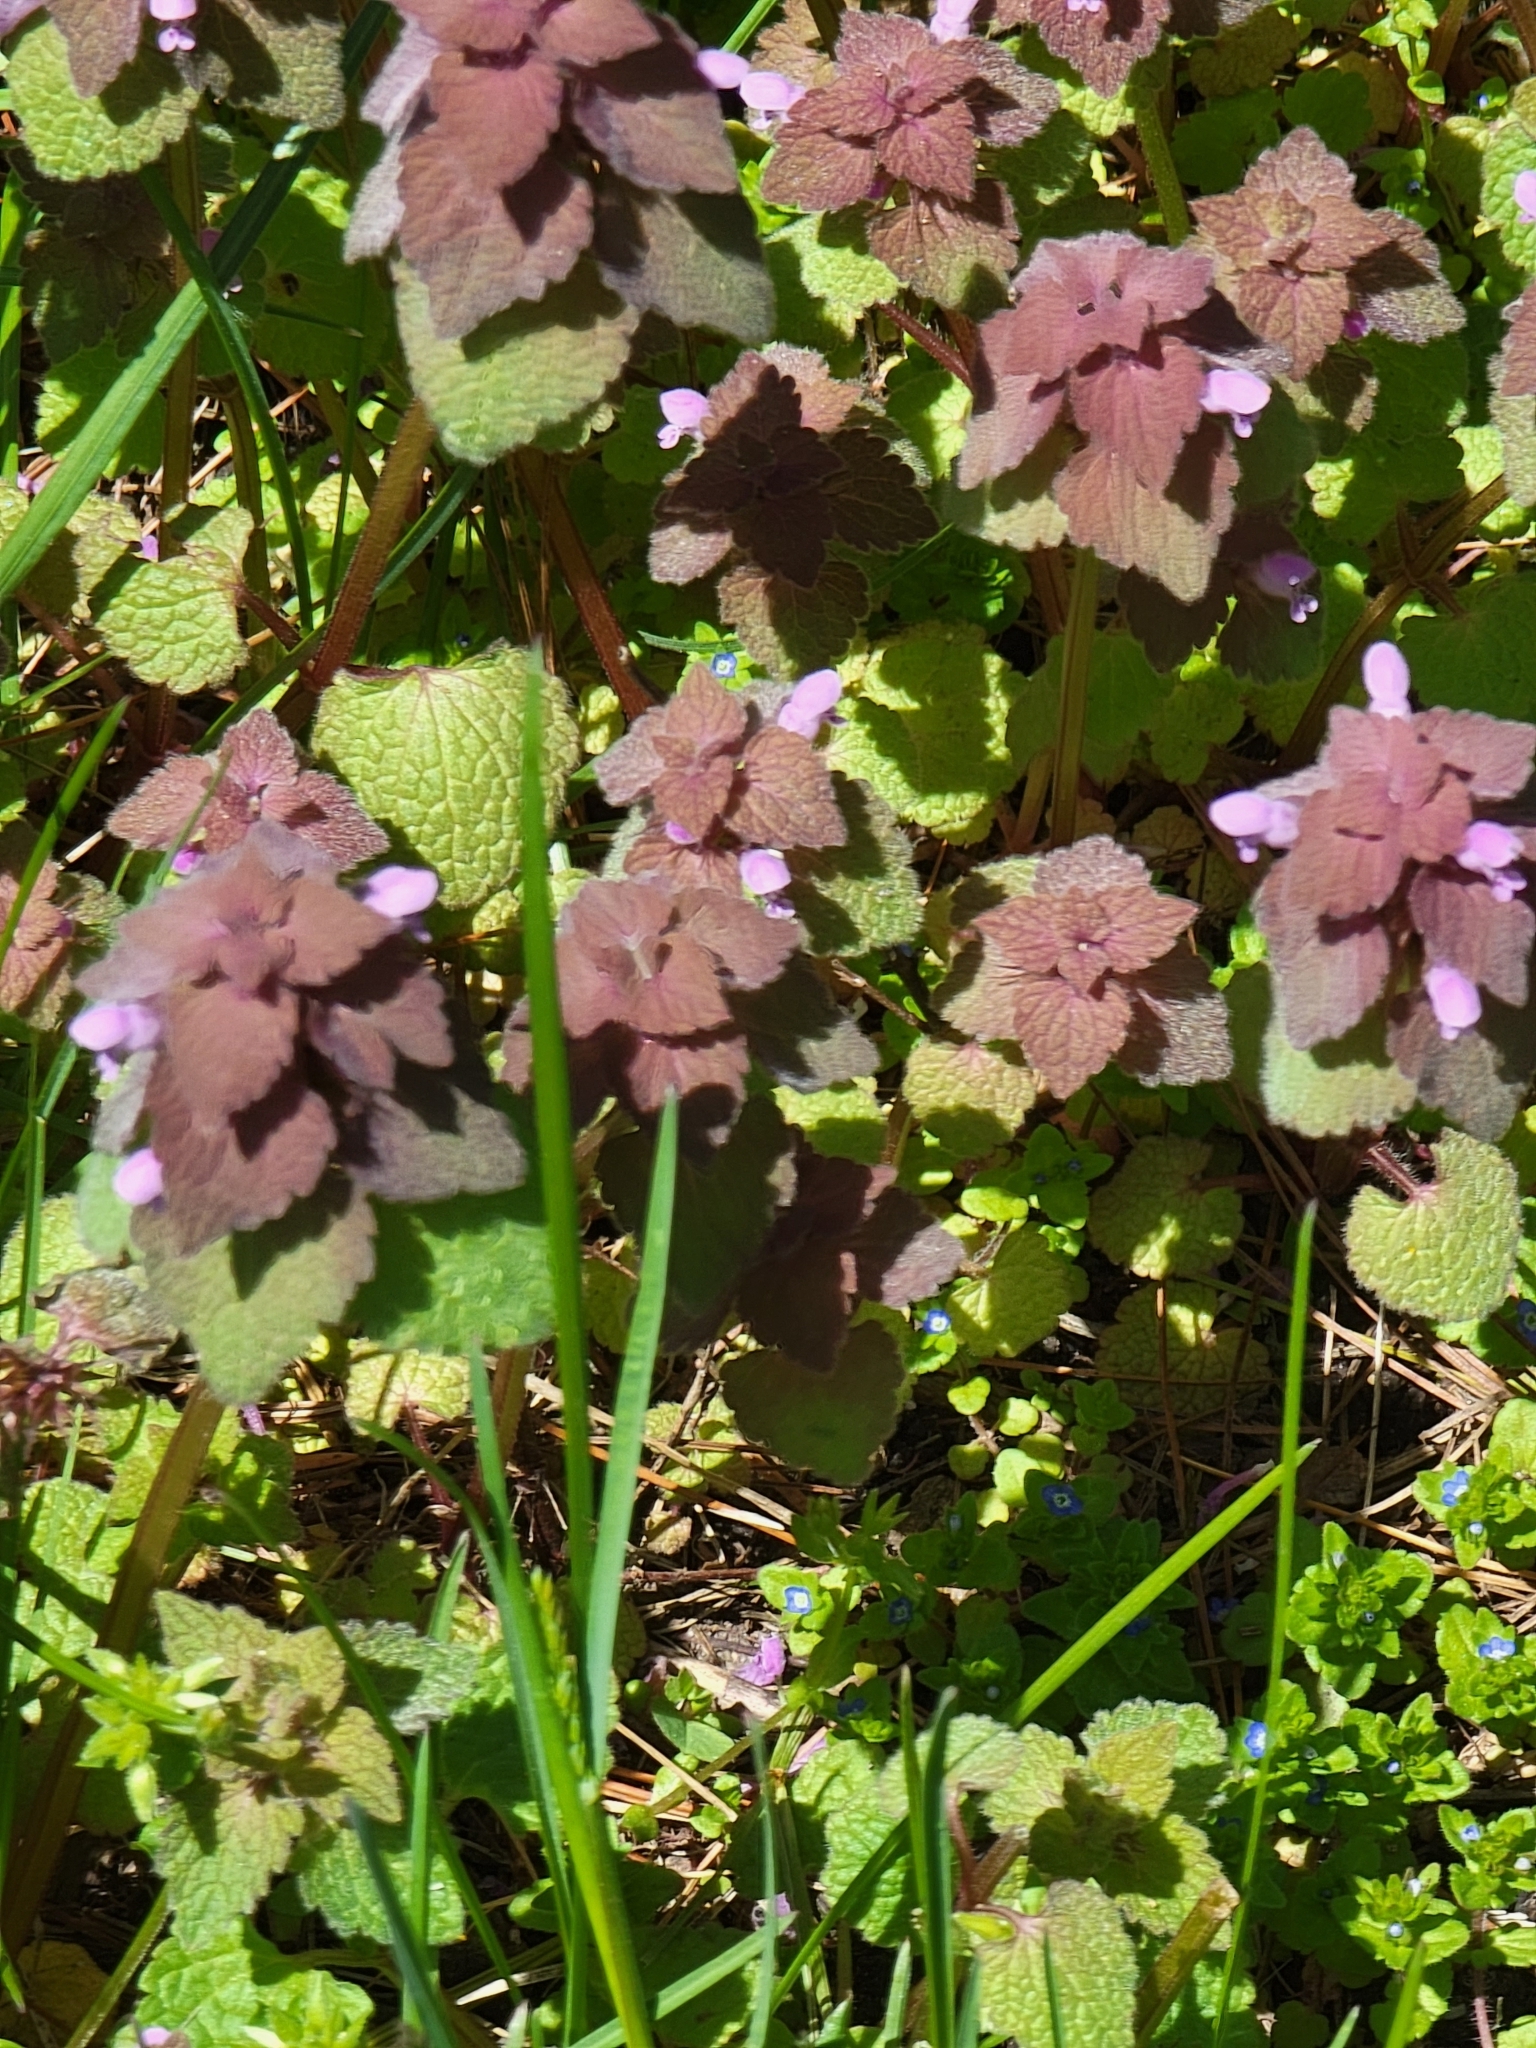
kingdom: Plantae
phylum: Tracheophyta
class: Magnoliopsida
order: Lamiales
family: Lamiaceae
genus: Lamium
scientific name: Lamium purpureum
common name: Red dead-nettle
